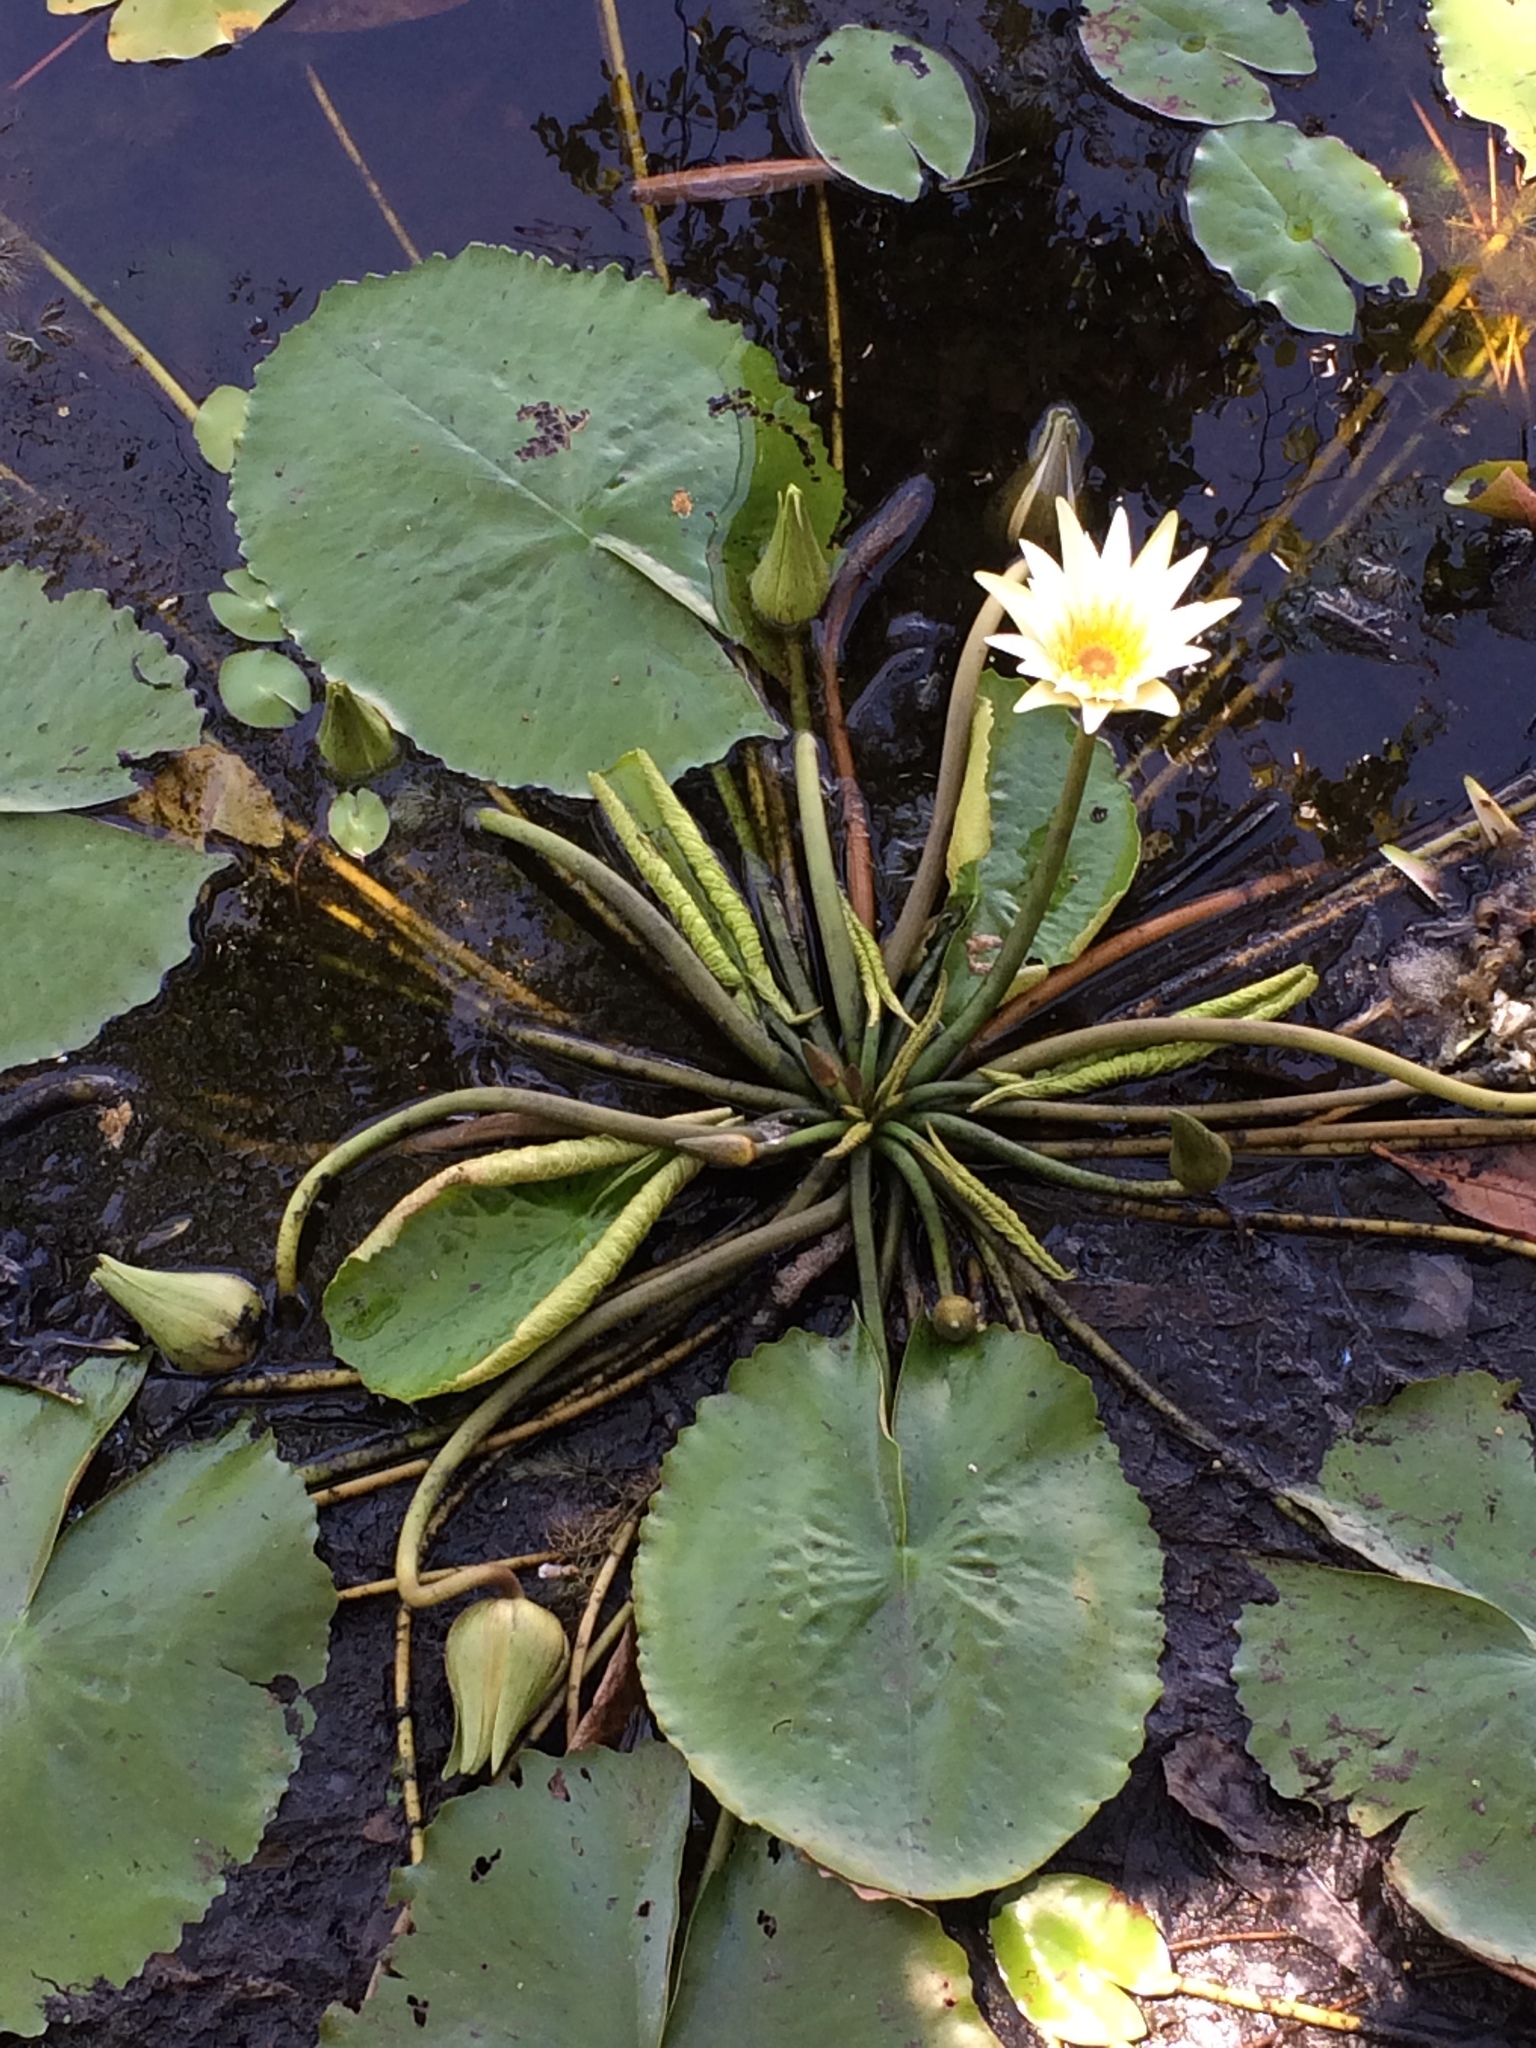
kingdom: Plantae
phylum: Tracheophyta
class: Magnoliopsida
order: Nymphaeales
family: Nymphaeaceae
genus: Nymphaea
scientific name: Nymphaea pulchella
